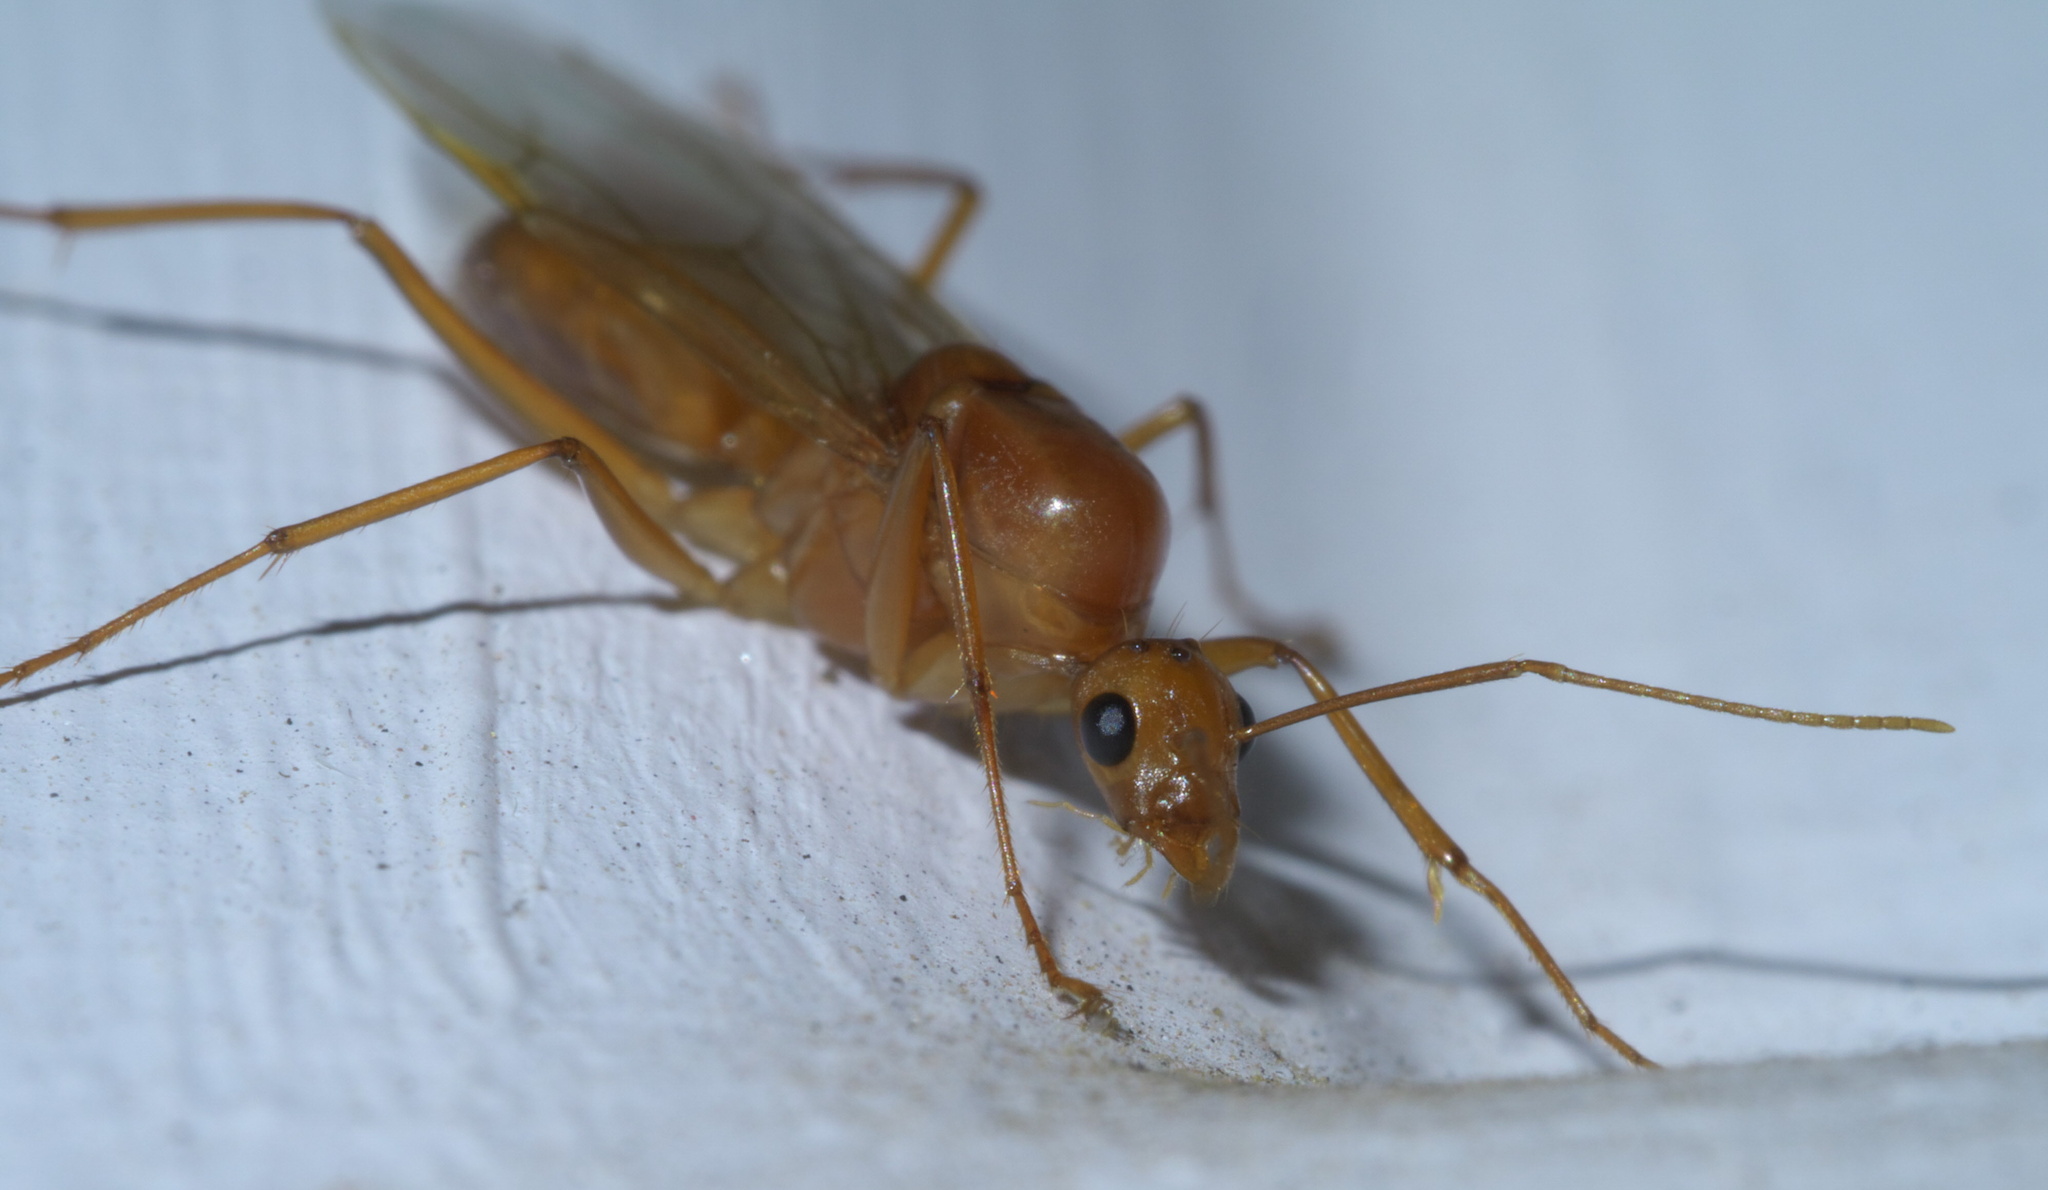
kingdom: Animalia
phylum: Arthropoda
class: Insecta
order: Hymenoptera
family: Formicidae
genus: Camponotus
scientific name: Camponotus castaneus
